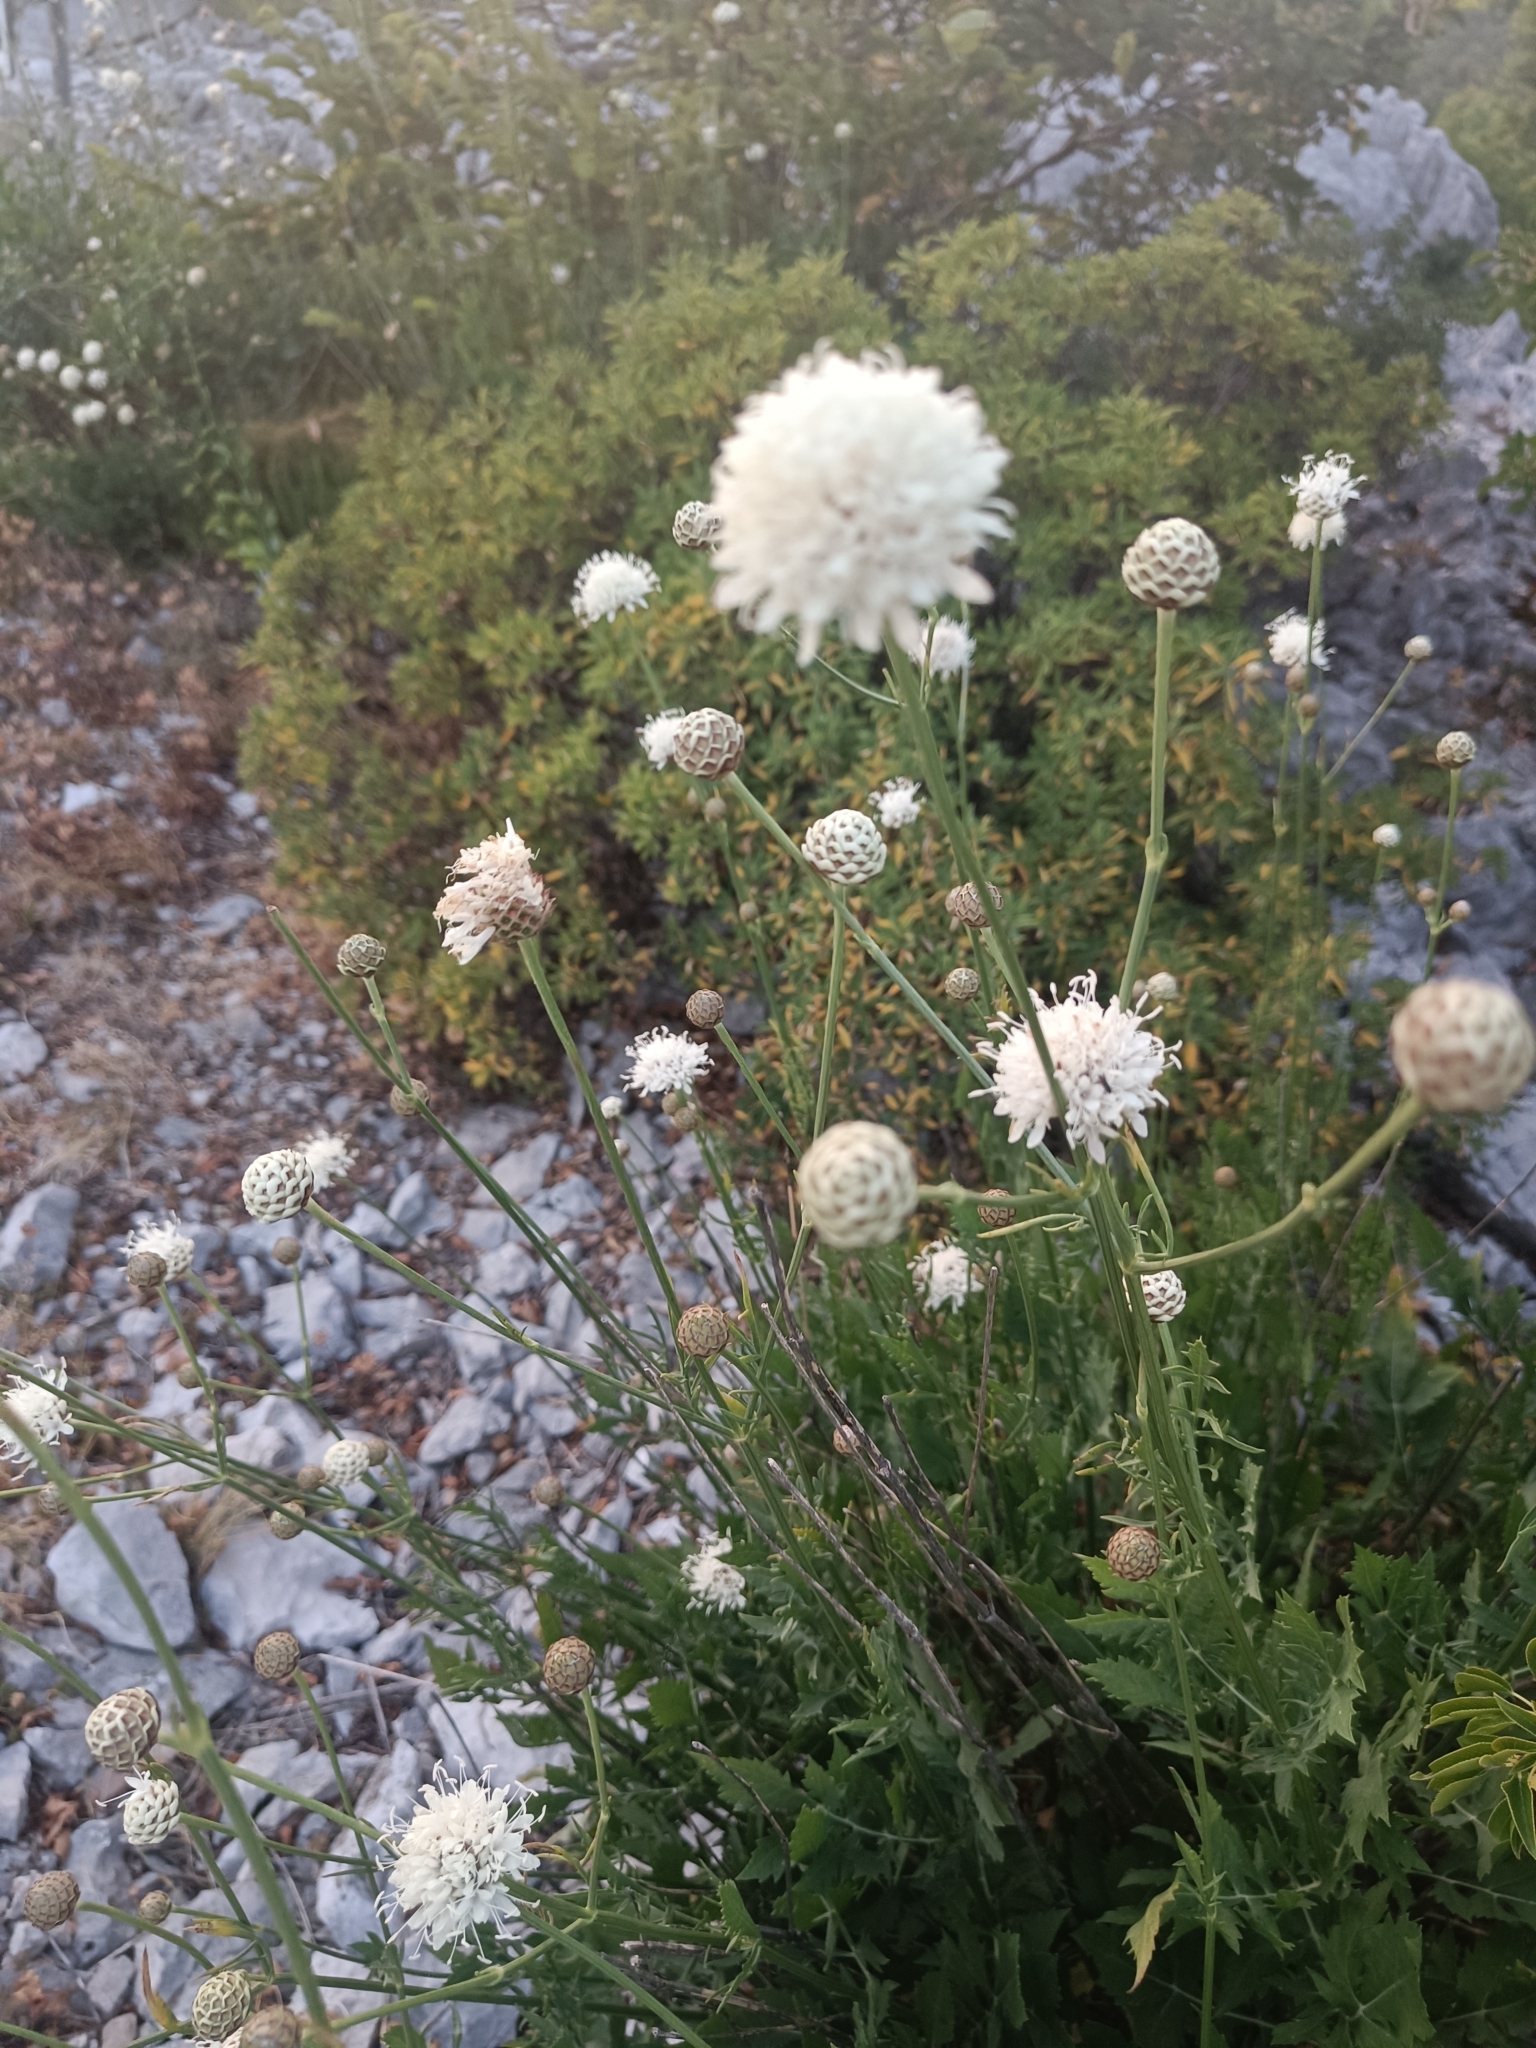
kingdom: Plantae
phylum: Tracheophyta
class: Magnoliopsida
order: Dipsacales
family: Caprifoliaceae
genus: Cephalaria
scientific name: Cephalaria leucantha
